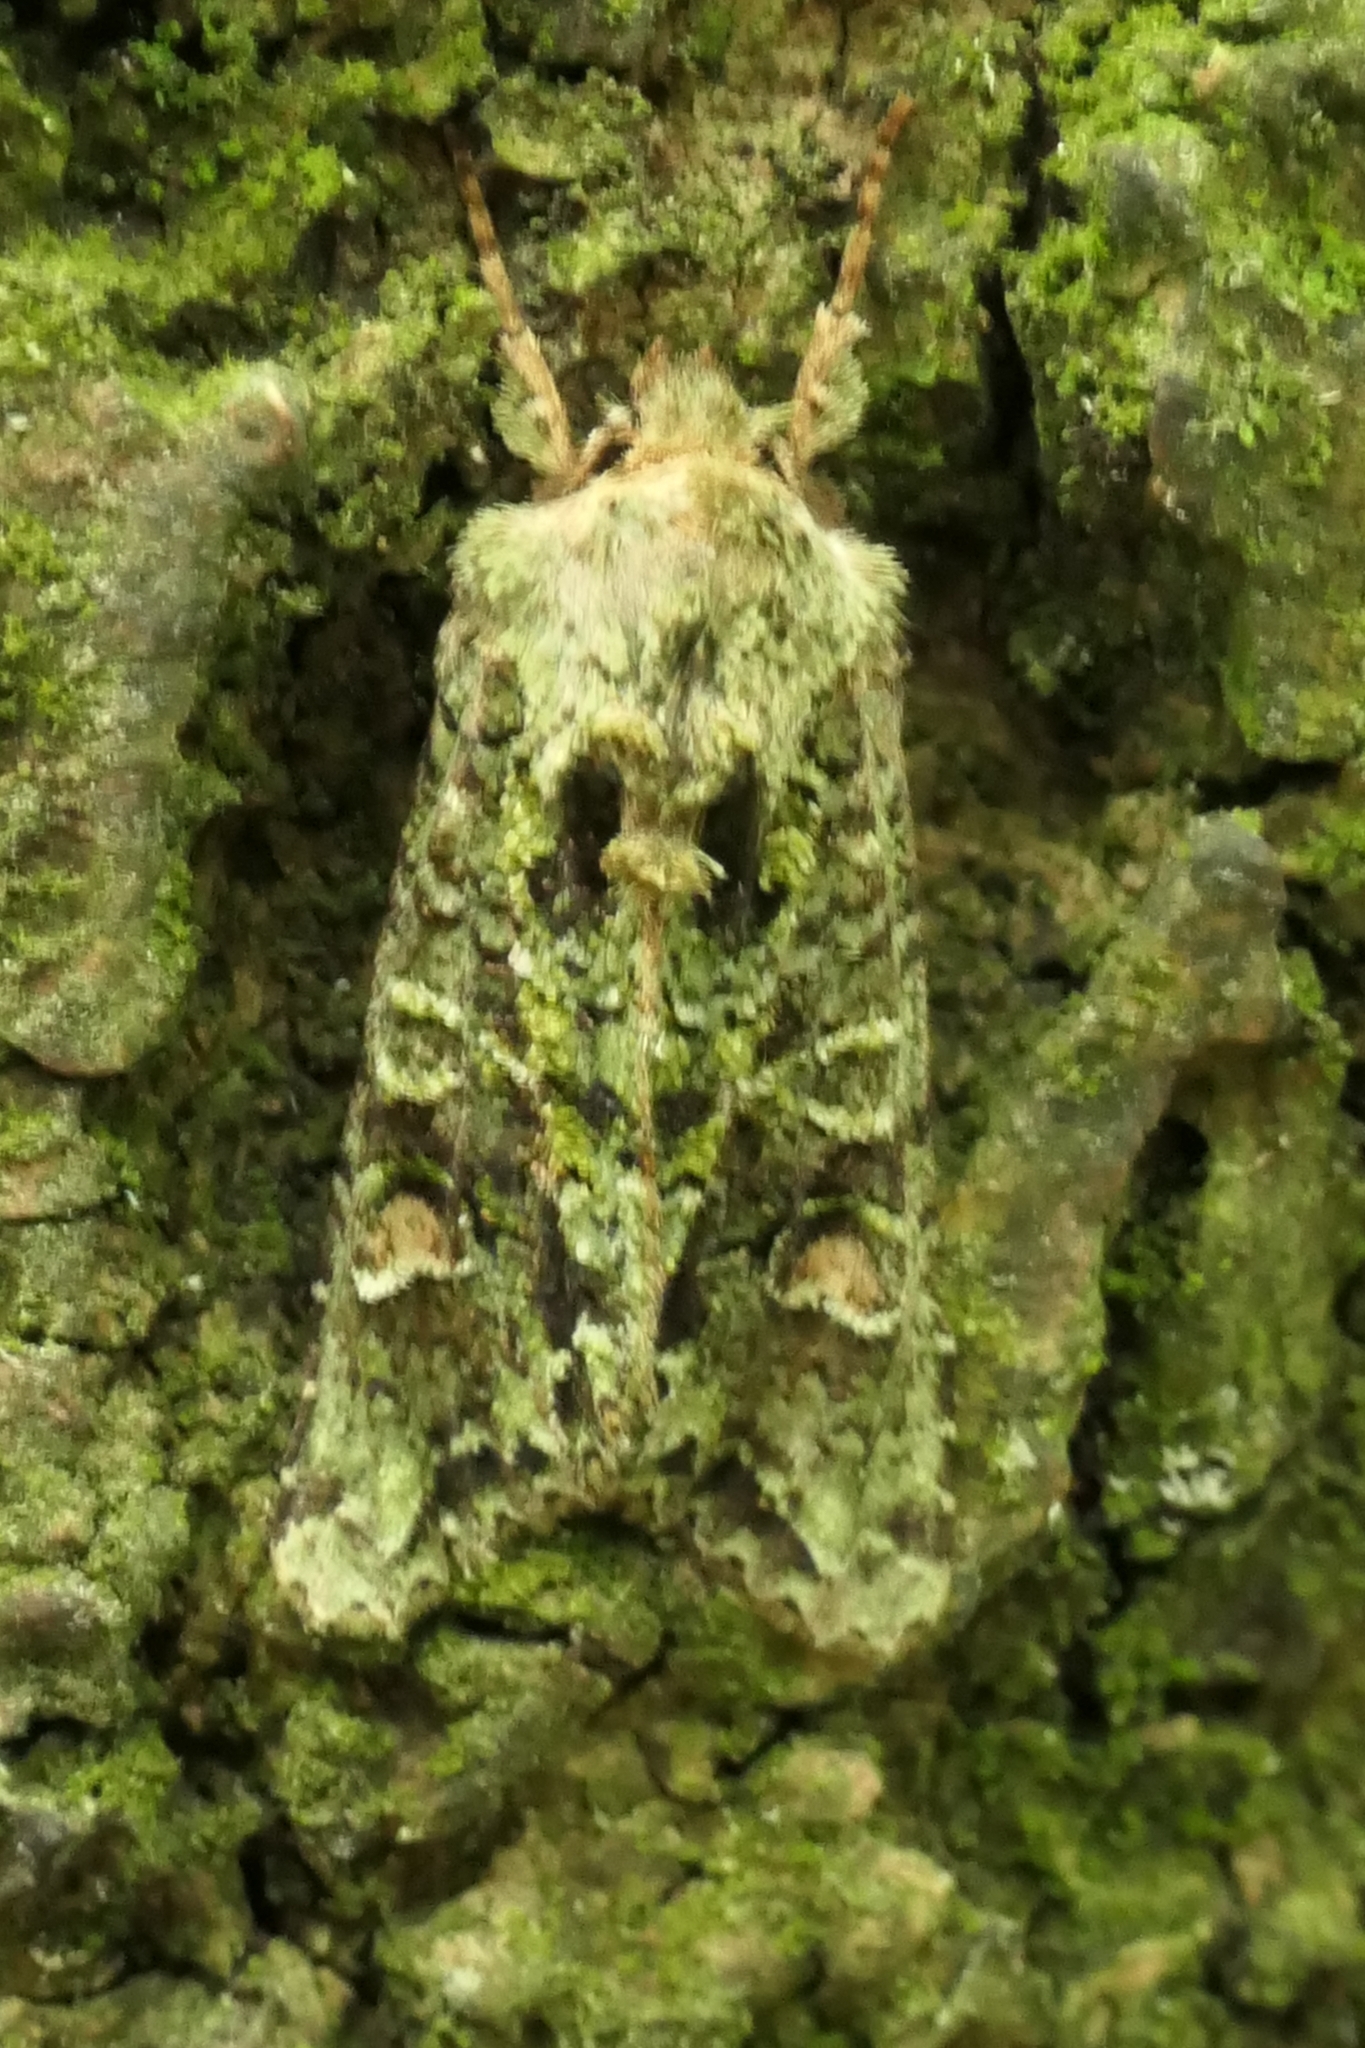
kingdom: Animalia
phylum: Arthropoda
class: Insecta
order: Lepidoptera
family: Noctuidae
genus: Ichneutica
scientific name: Ichneutica
